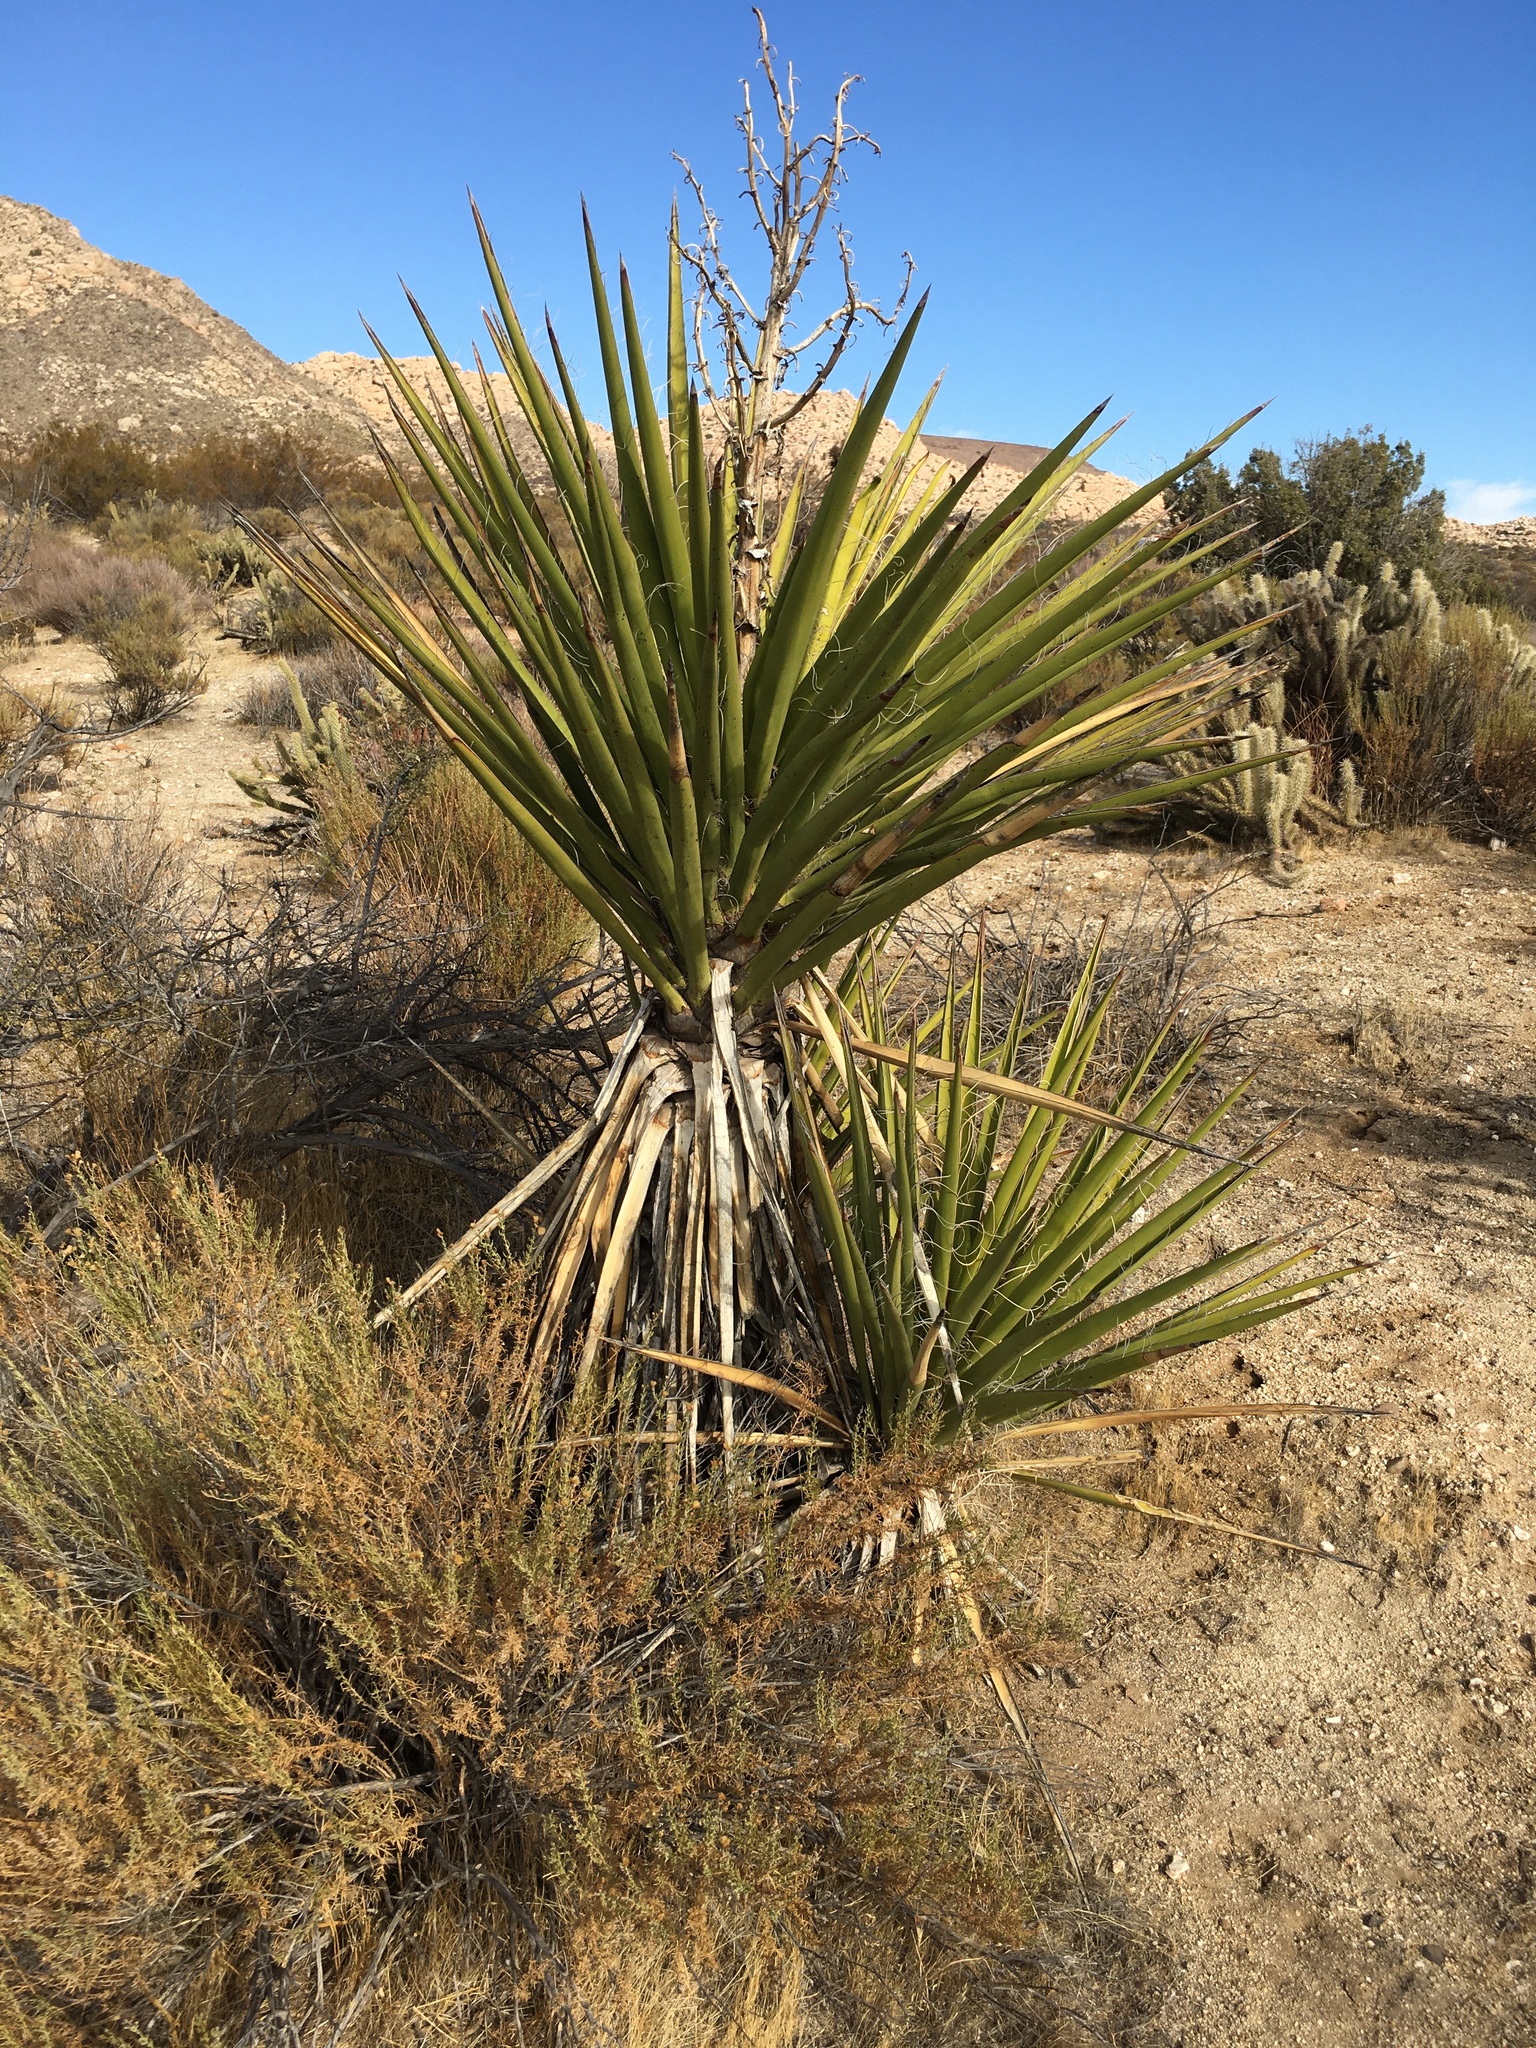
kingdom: Plantae
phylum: Tracheophyta
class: Liliopsida
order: Asparagales
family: Asparagaceae
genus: Yucca
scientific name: Yucca schidigera
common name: Mojave yucca
